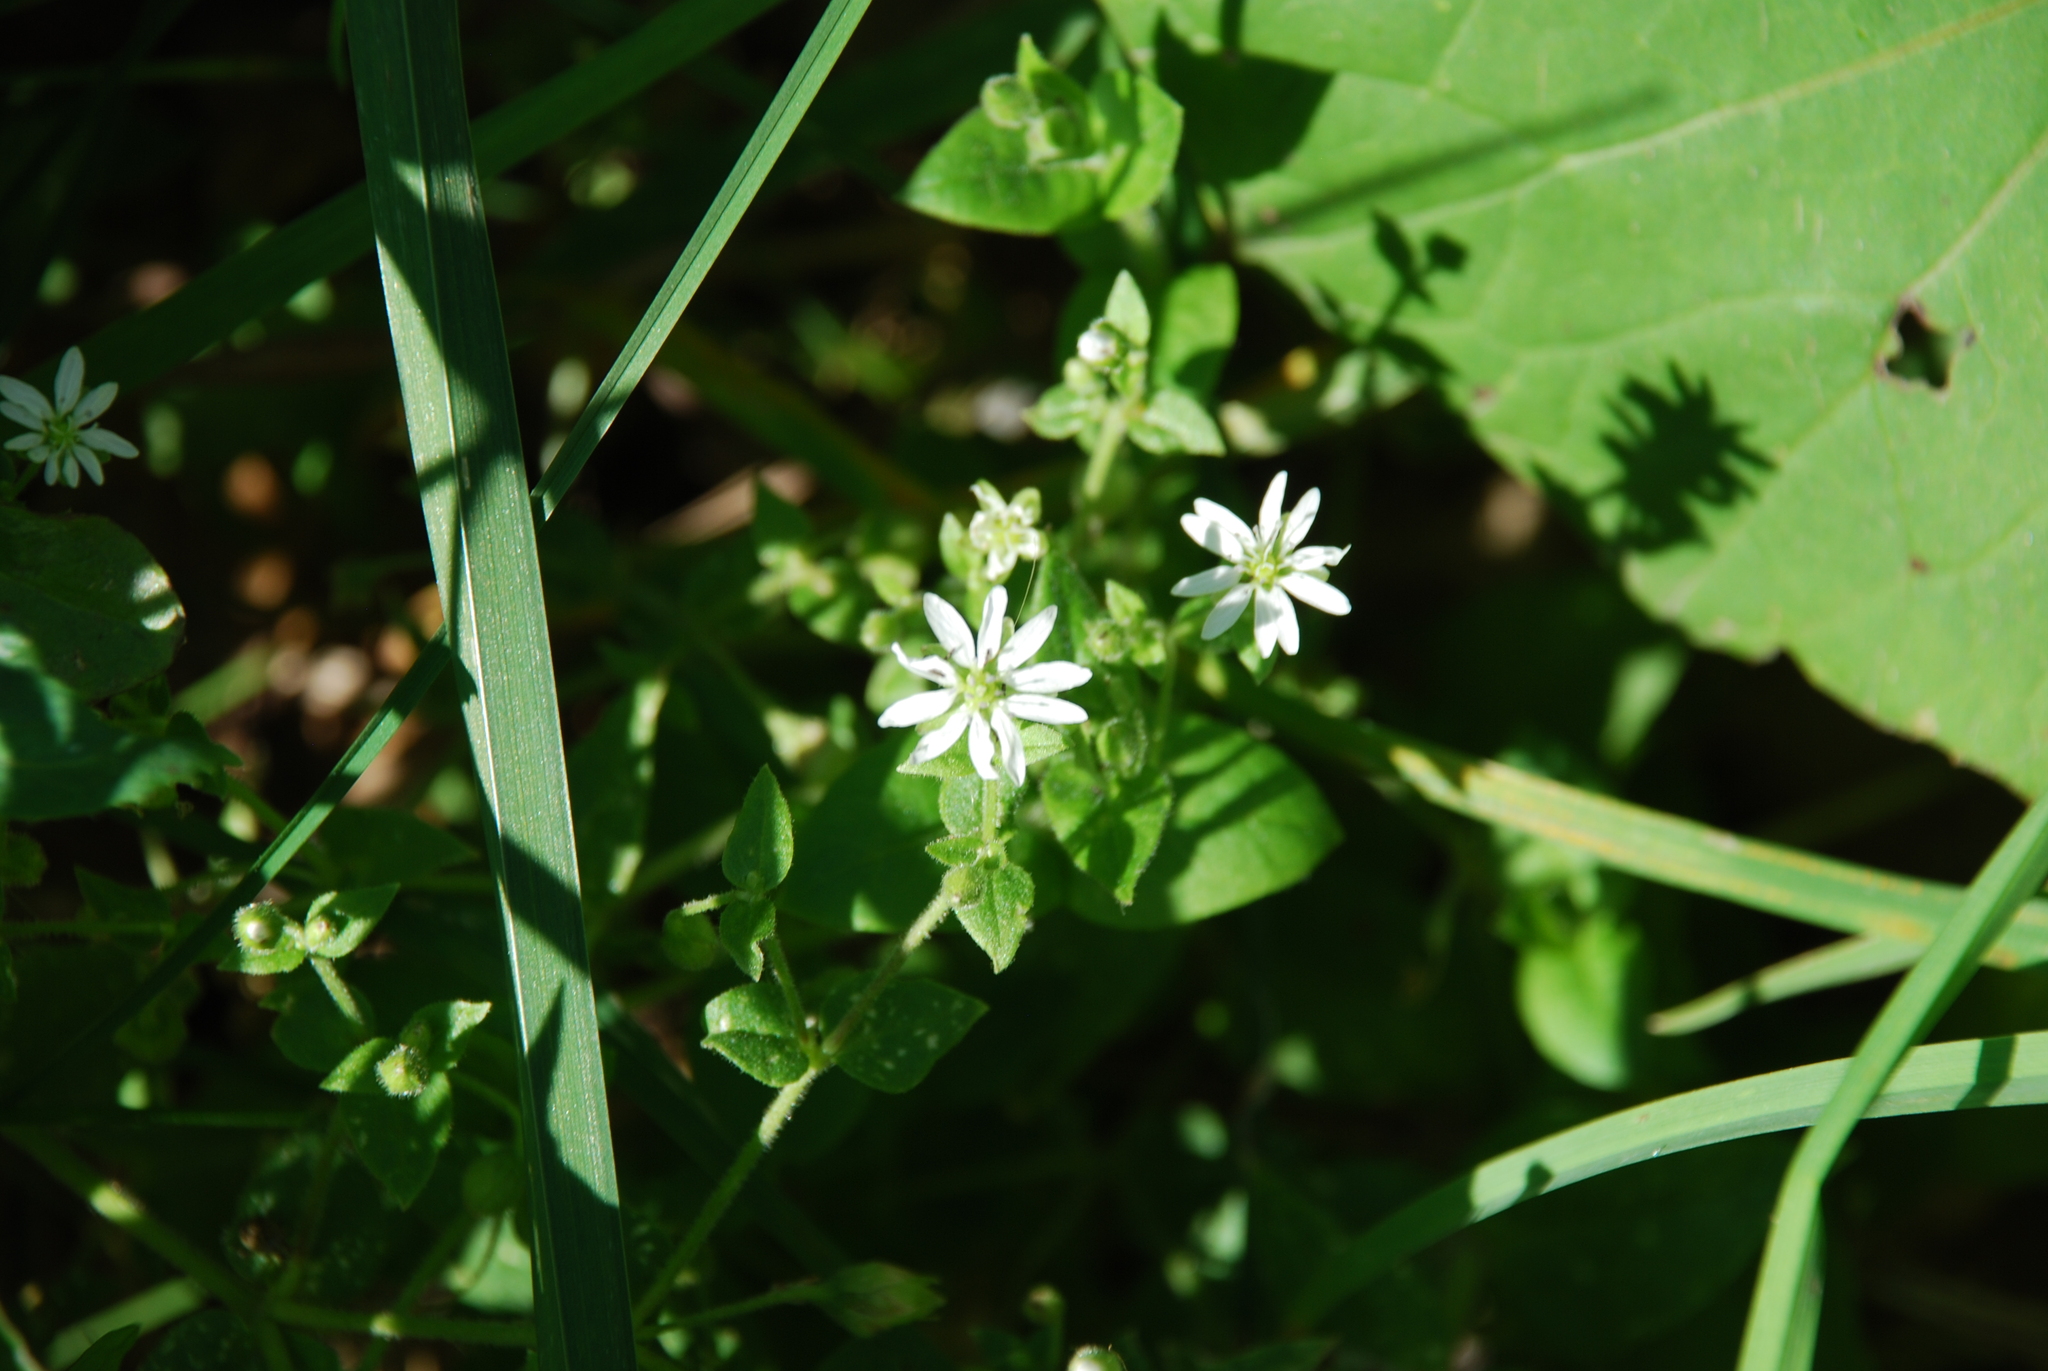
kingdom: Plantae
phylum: Tracheophyta
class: Magnoliopsida
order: Caryophyllales
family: Caryophyllaceae
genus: Stellaria
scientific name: Stellaria aquatica
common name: Water chickweed
